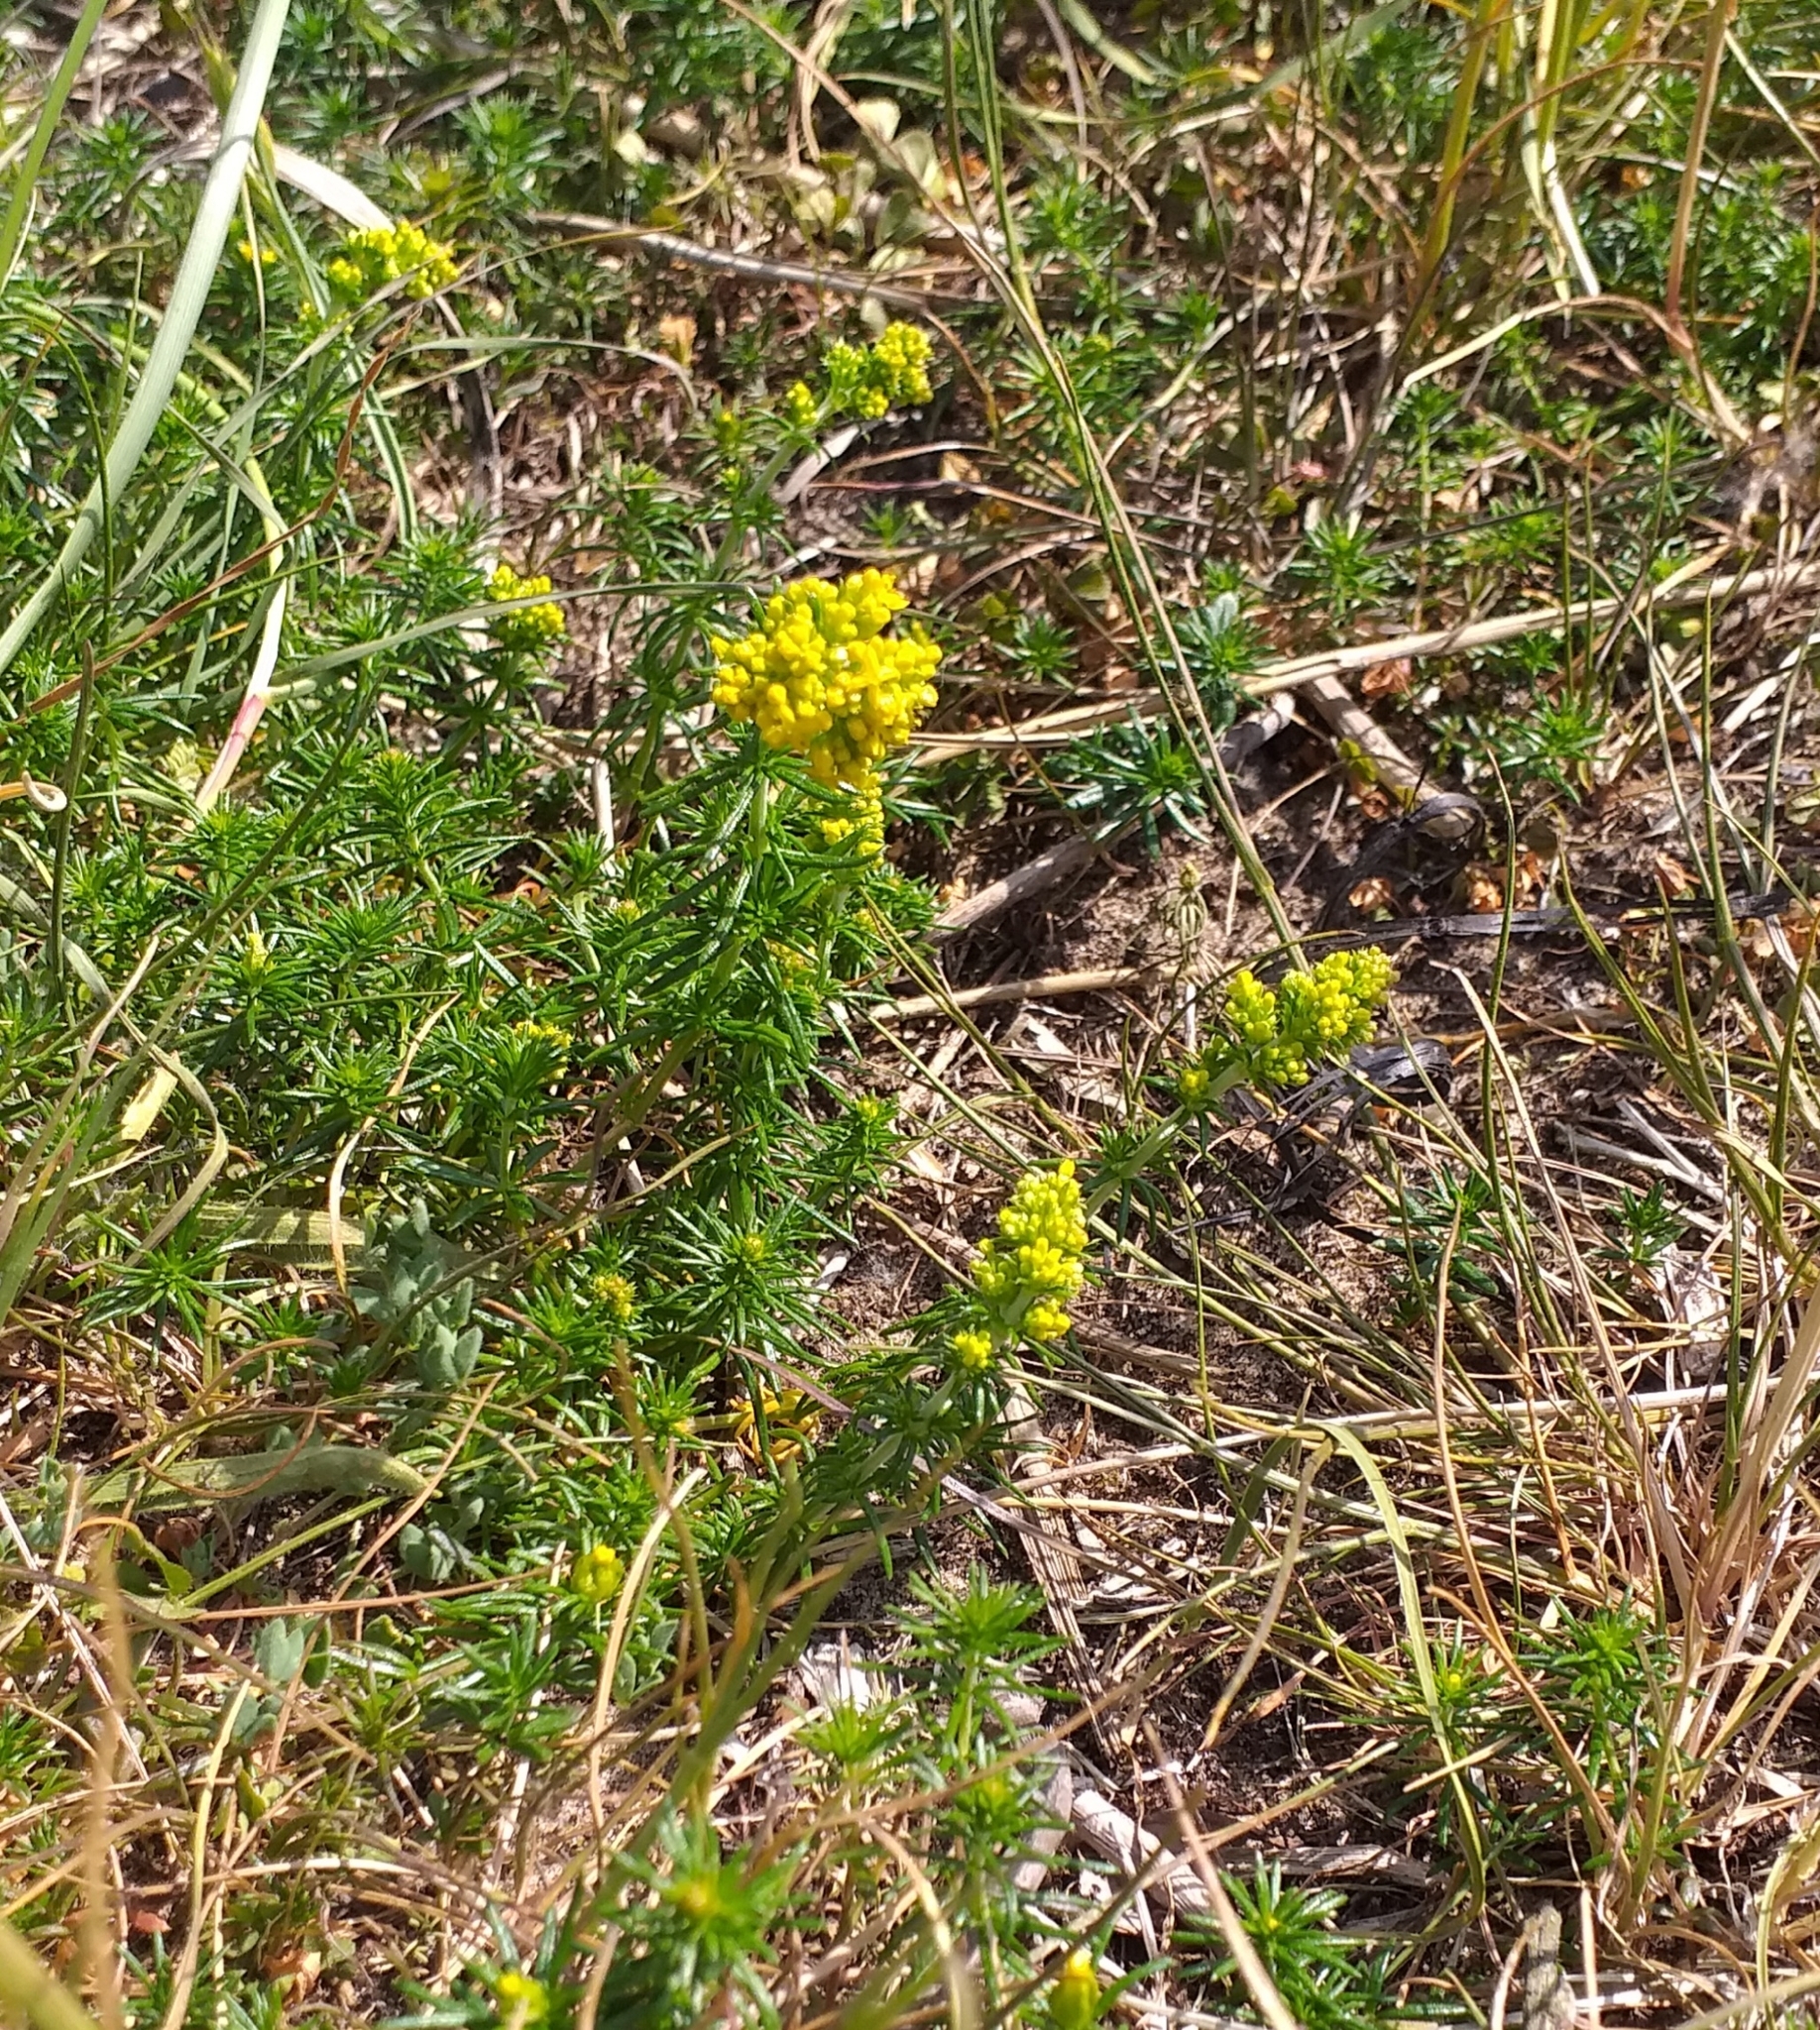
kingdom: Plantae
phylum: Tracheophyta
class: Magnoliopsida
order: Gentianales
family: Rubiaceae
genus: Galium
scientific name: Galium verum
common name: Lady's bedstraw
